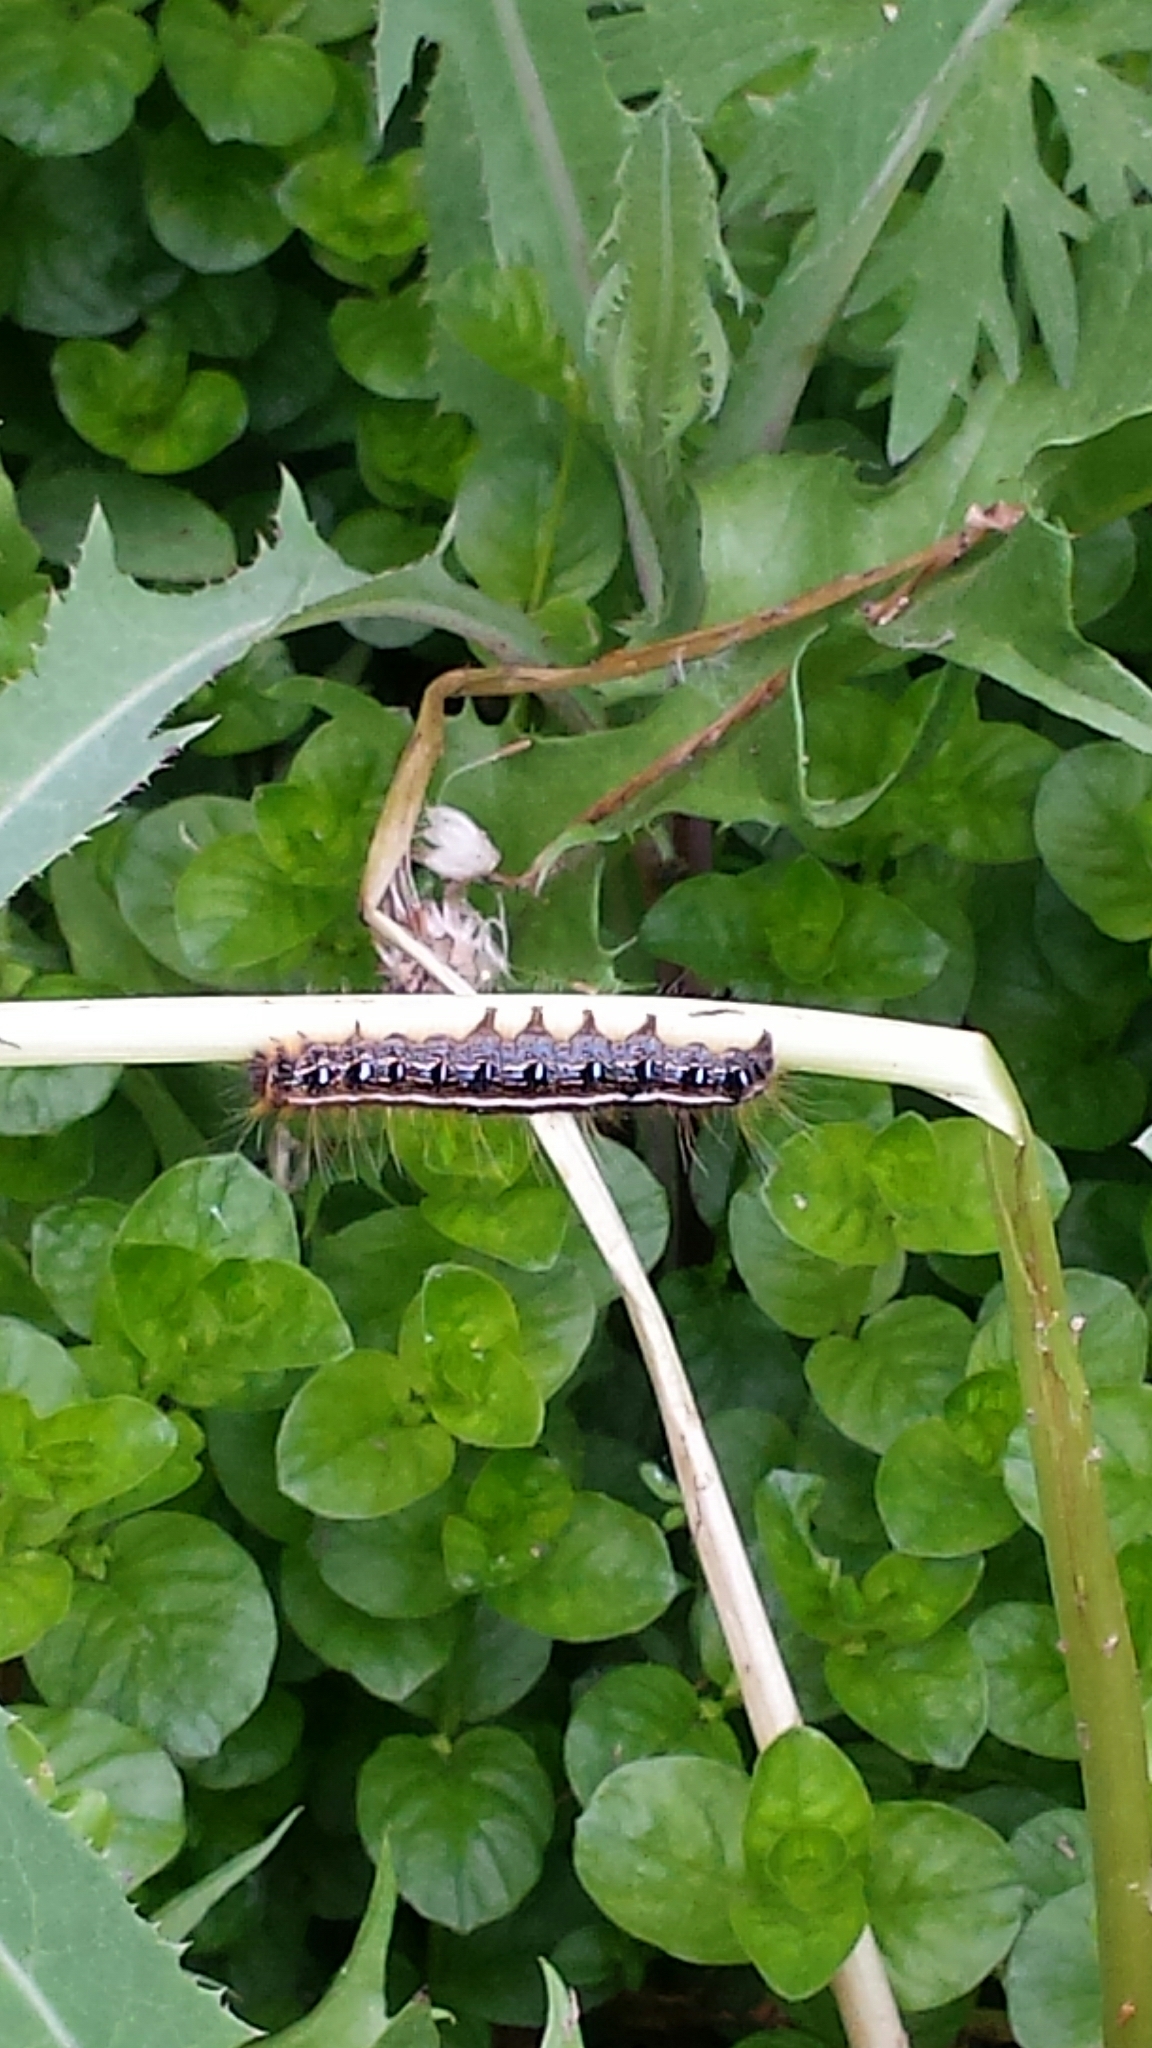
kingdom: Animalia
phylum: Arthropoda
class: Insecta
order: Lepidoptera
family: Lasiocampidae
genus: Malacosoma
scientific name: Malacosoma americana
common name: Eastern tent caterpillar moth
